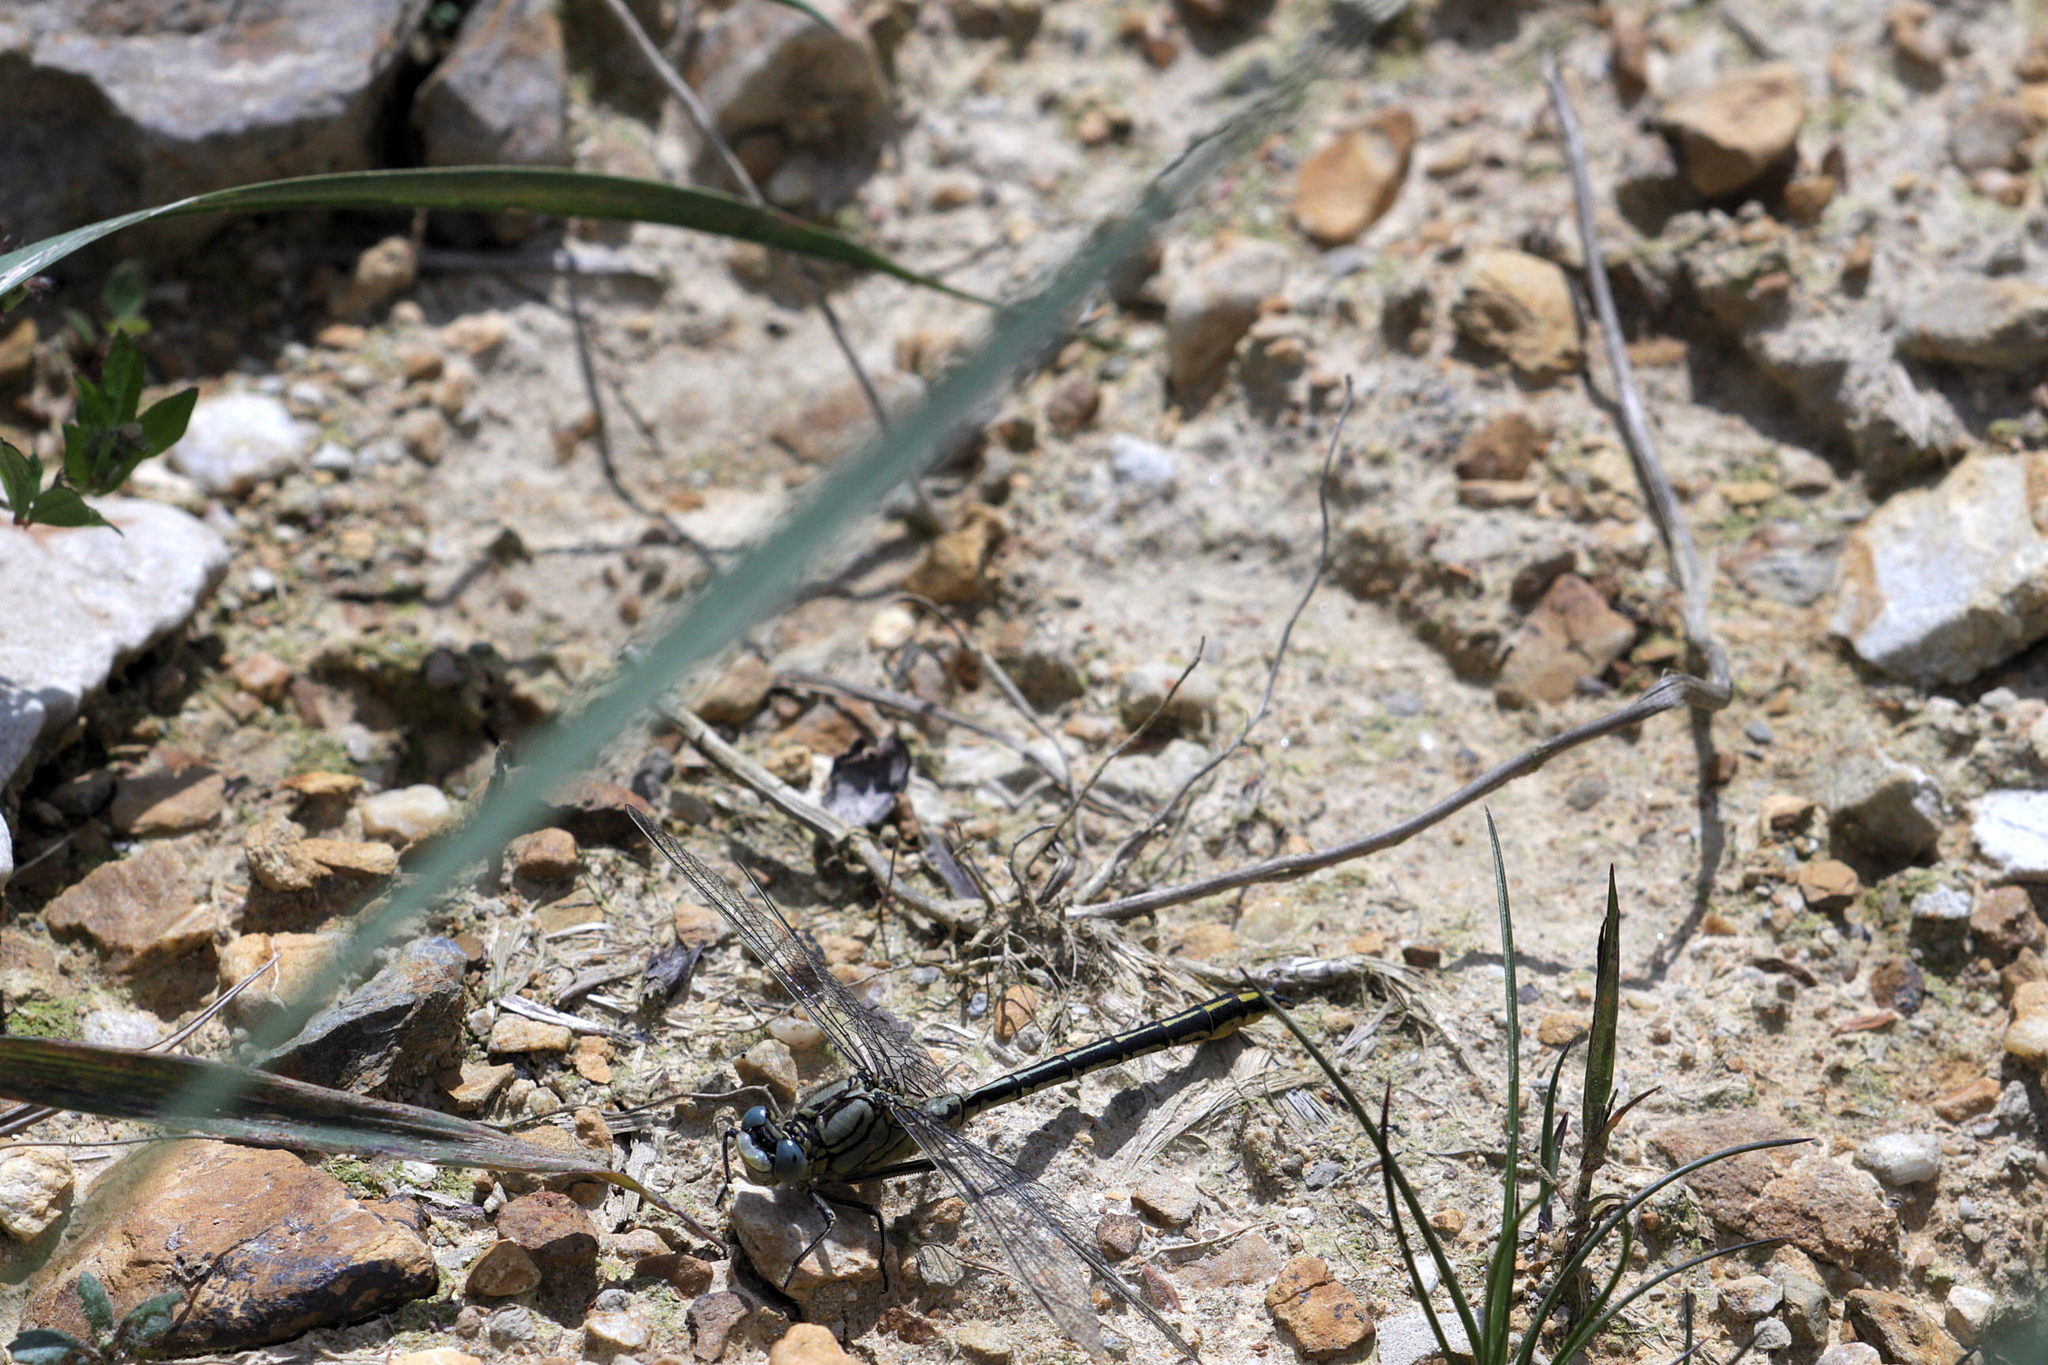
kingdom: Animalia
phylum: Arthropoda
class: Insecta
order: Odonata
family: Gomphidae
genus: Gomphus
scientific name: Gomphus pulchellus
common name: Western clubtail
